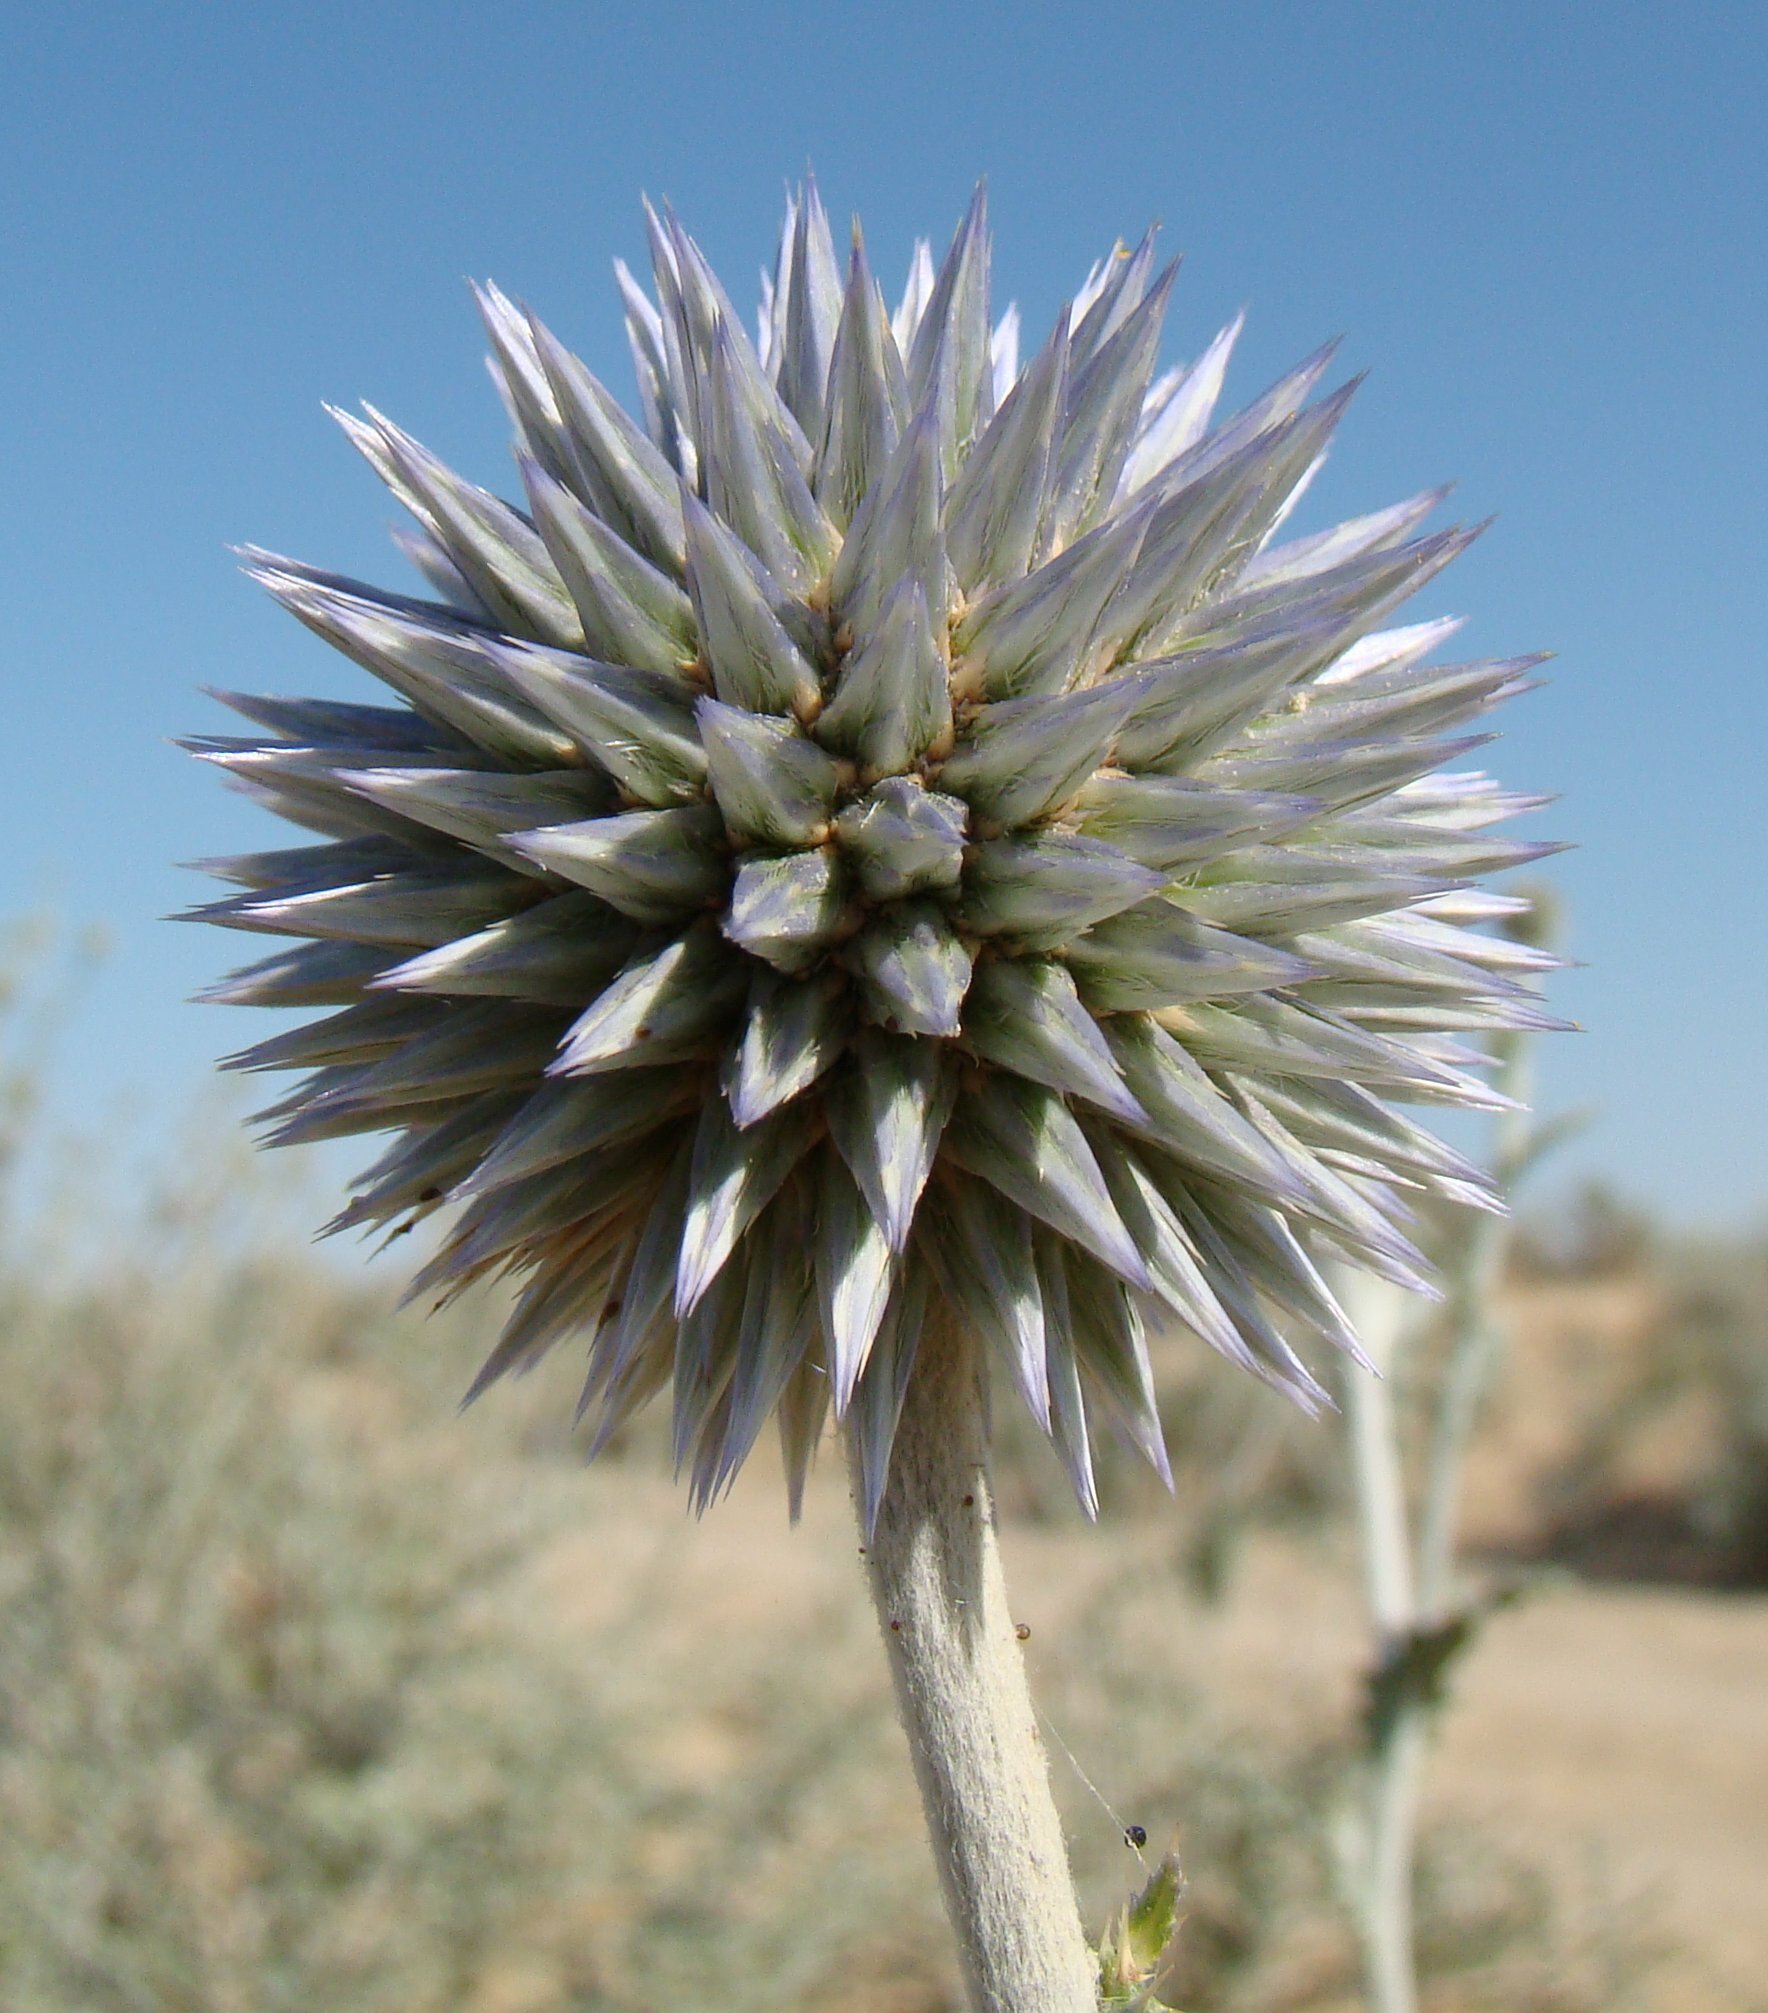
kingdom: Plantae
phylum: Tracheophyta
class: Magnoliopsida
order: Asterales
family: Asteraceae
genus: Echinops
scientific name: Echinops albicaulis
